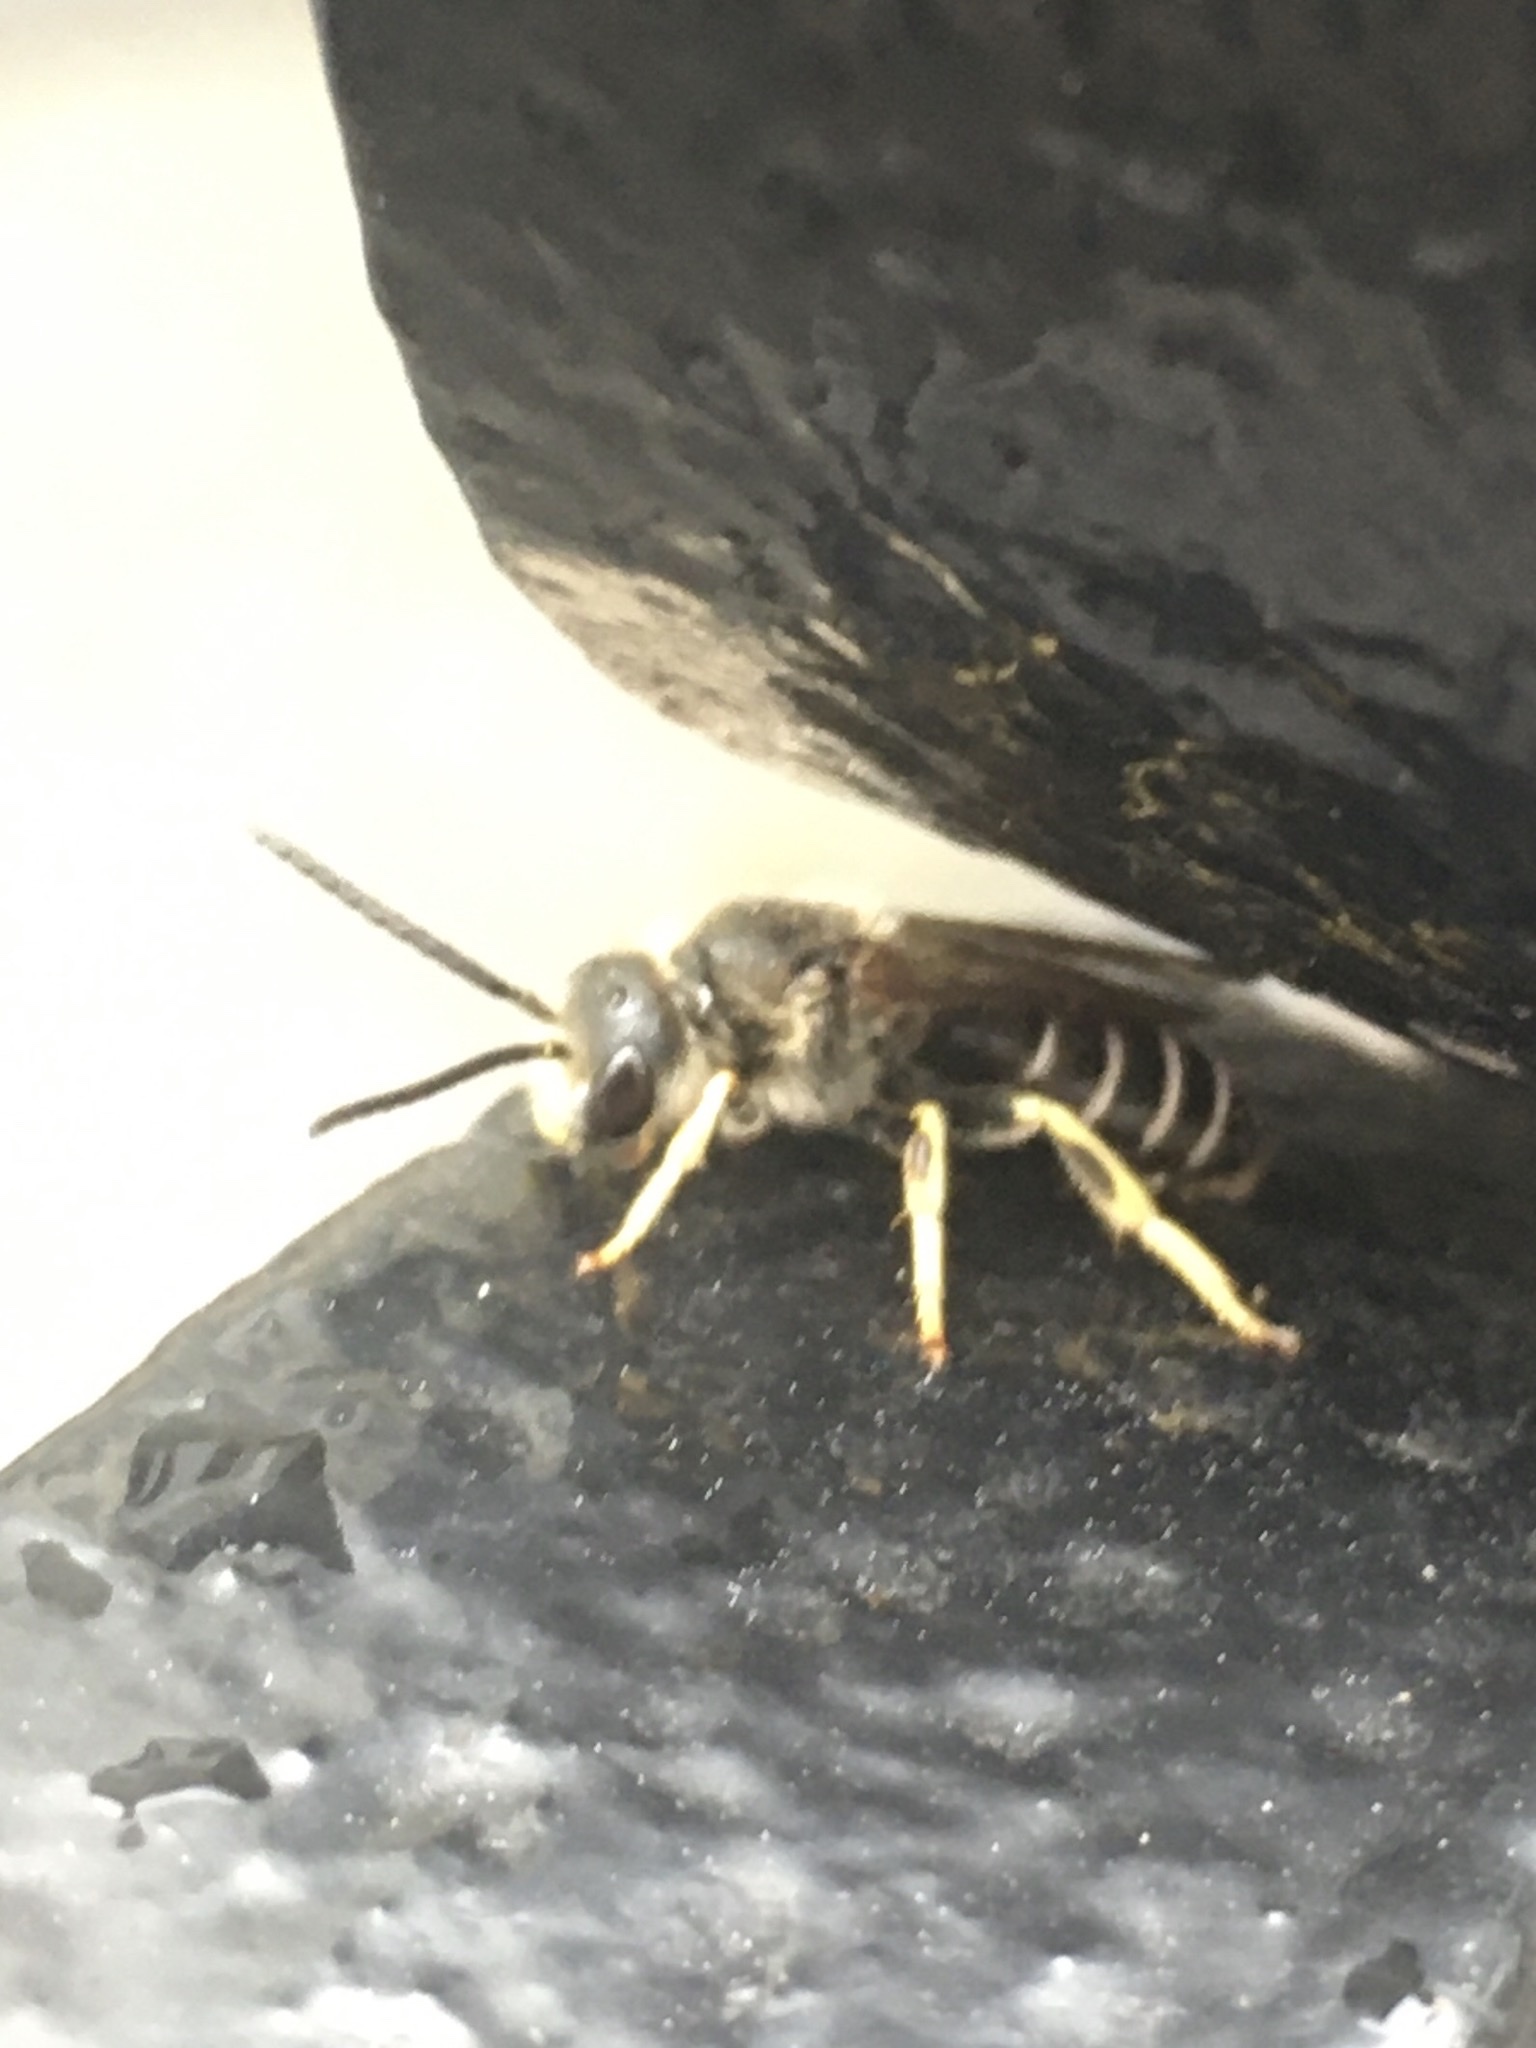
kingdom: Animalia
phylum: Arthropoda
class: Insecta
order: Hymenoptera
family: Halictidae
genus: Halictus
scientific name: Halictus rubicundus
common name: Orange-legged furrow bee
